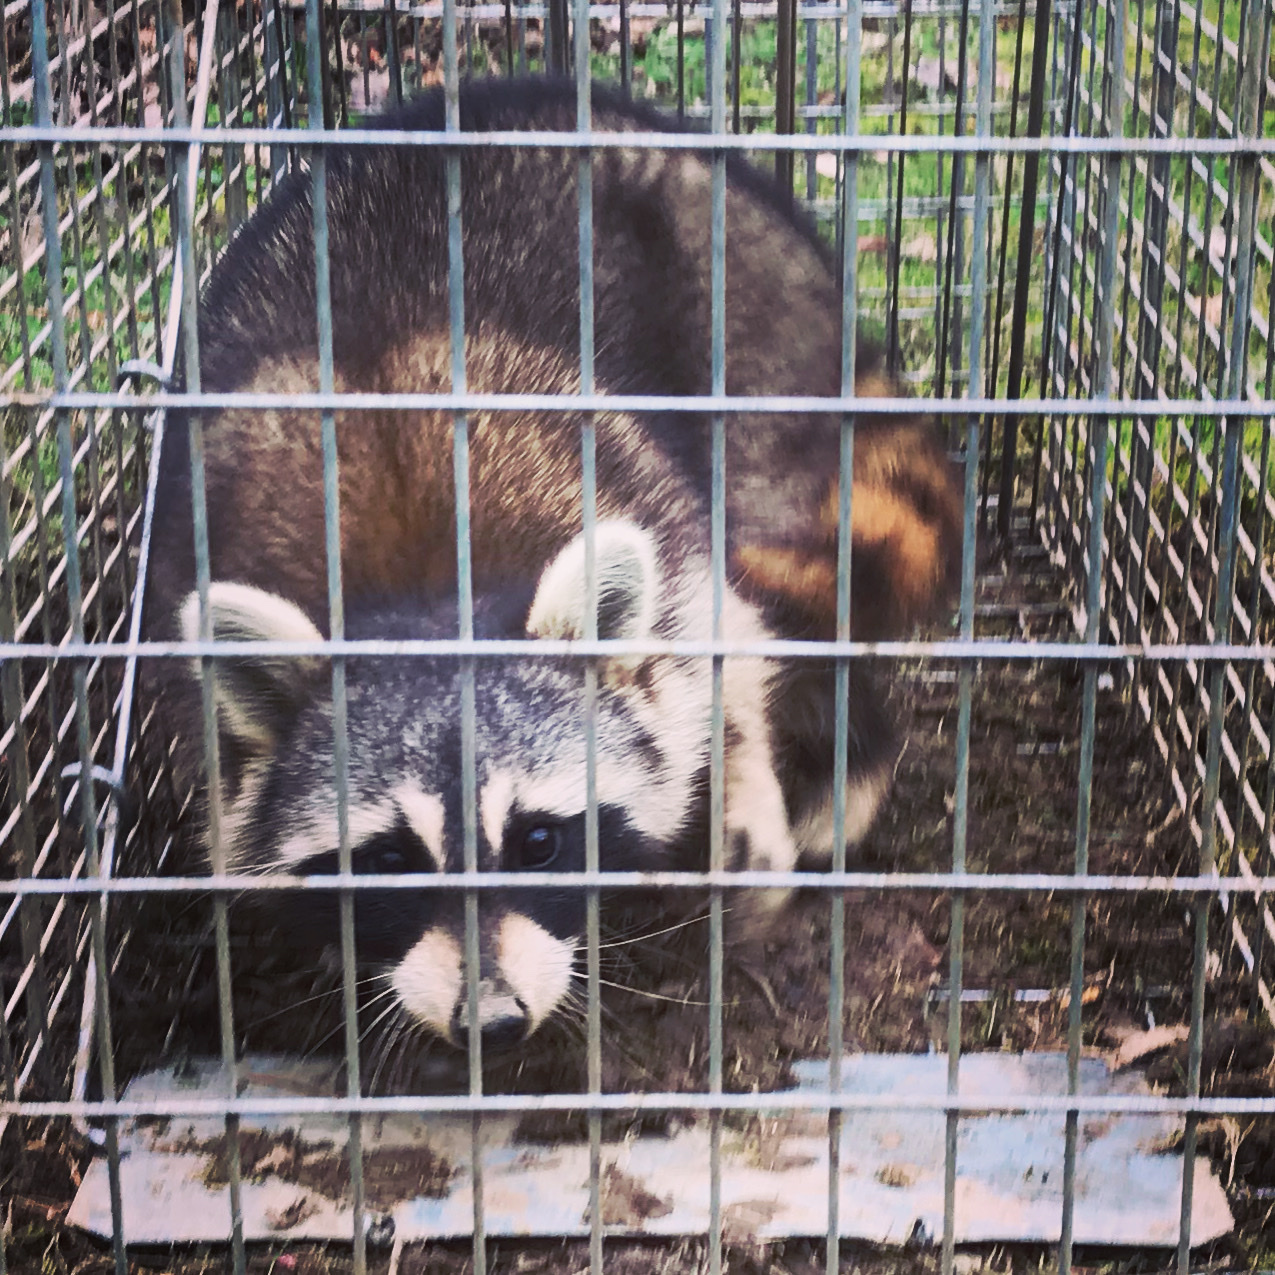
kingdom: Animalia
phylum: Chordata
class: Mammalia
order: Carnivora
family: Procyonidae
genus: Procyon
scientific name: Procyon lotor
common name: Raccoon
